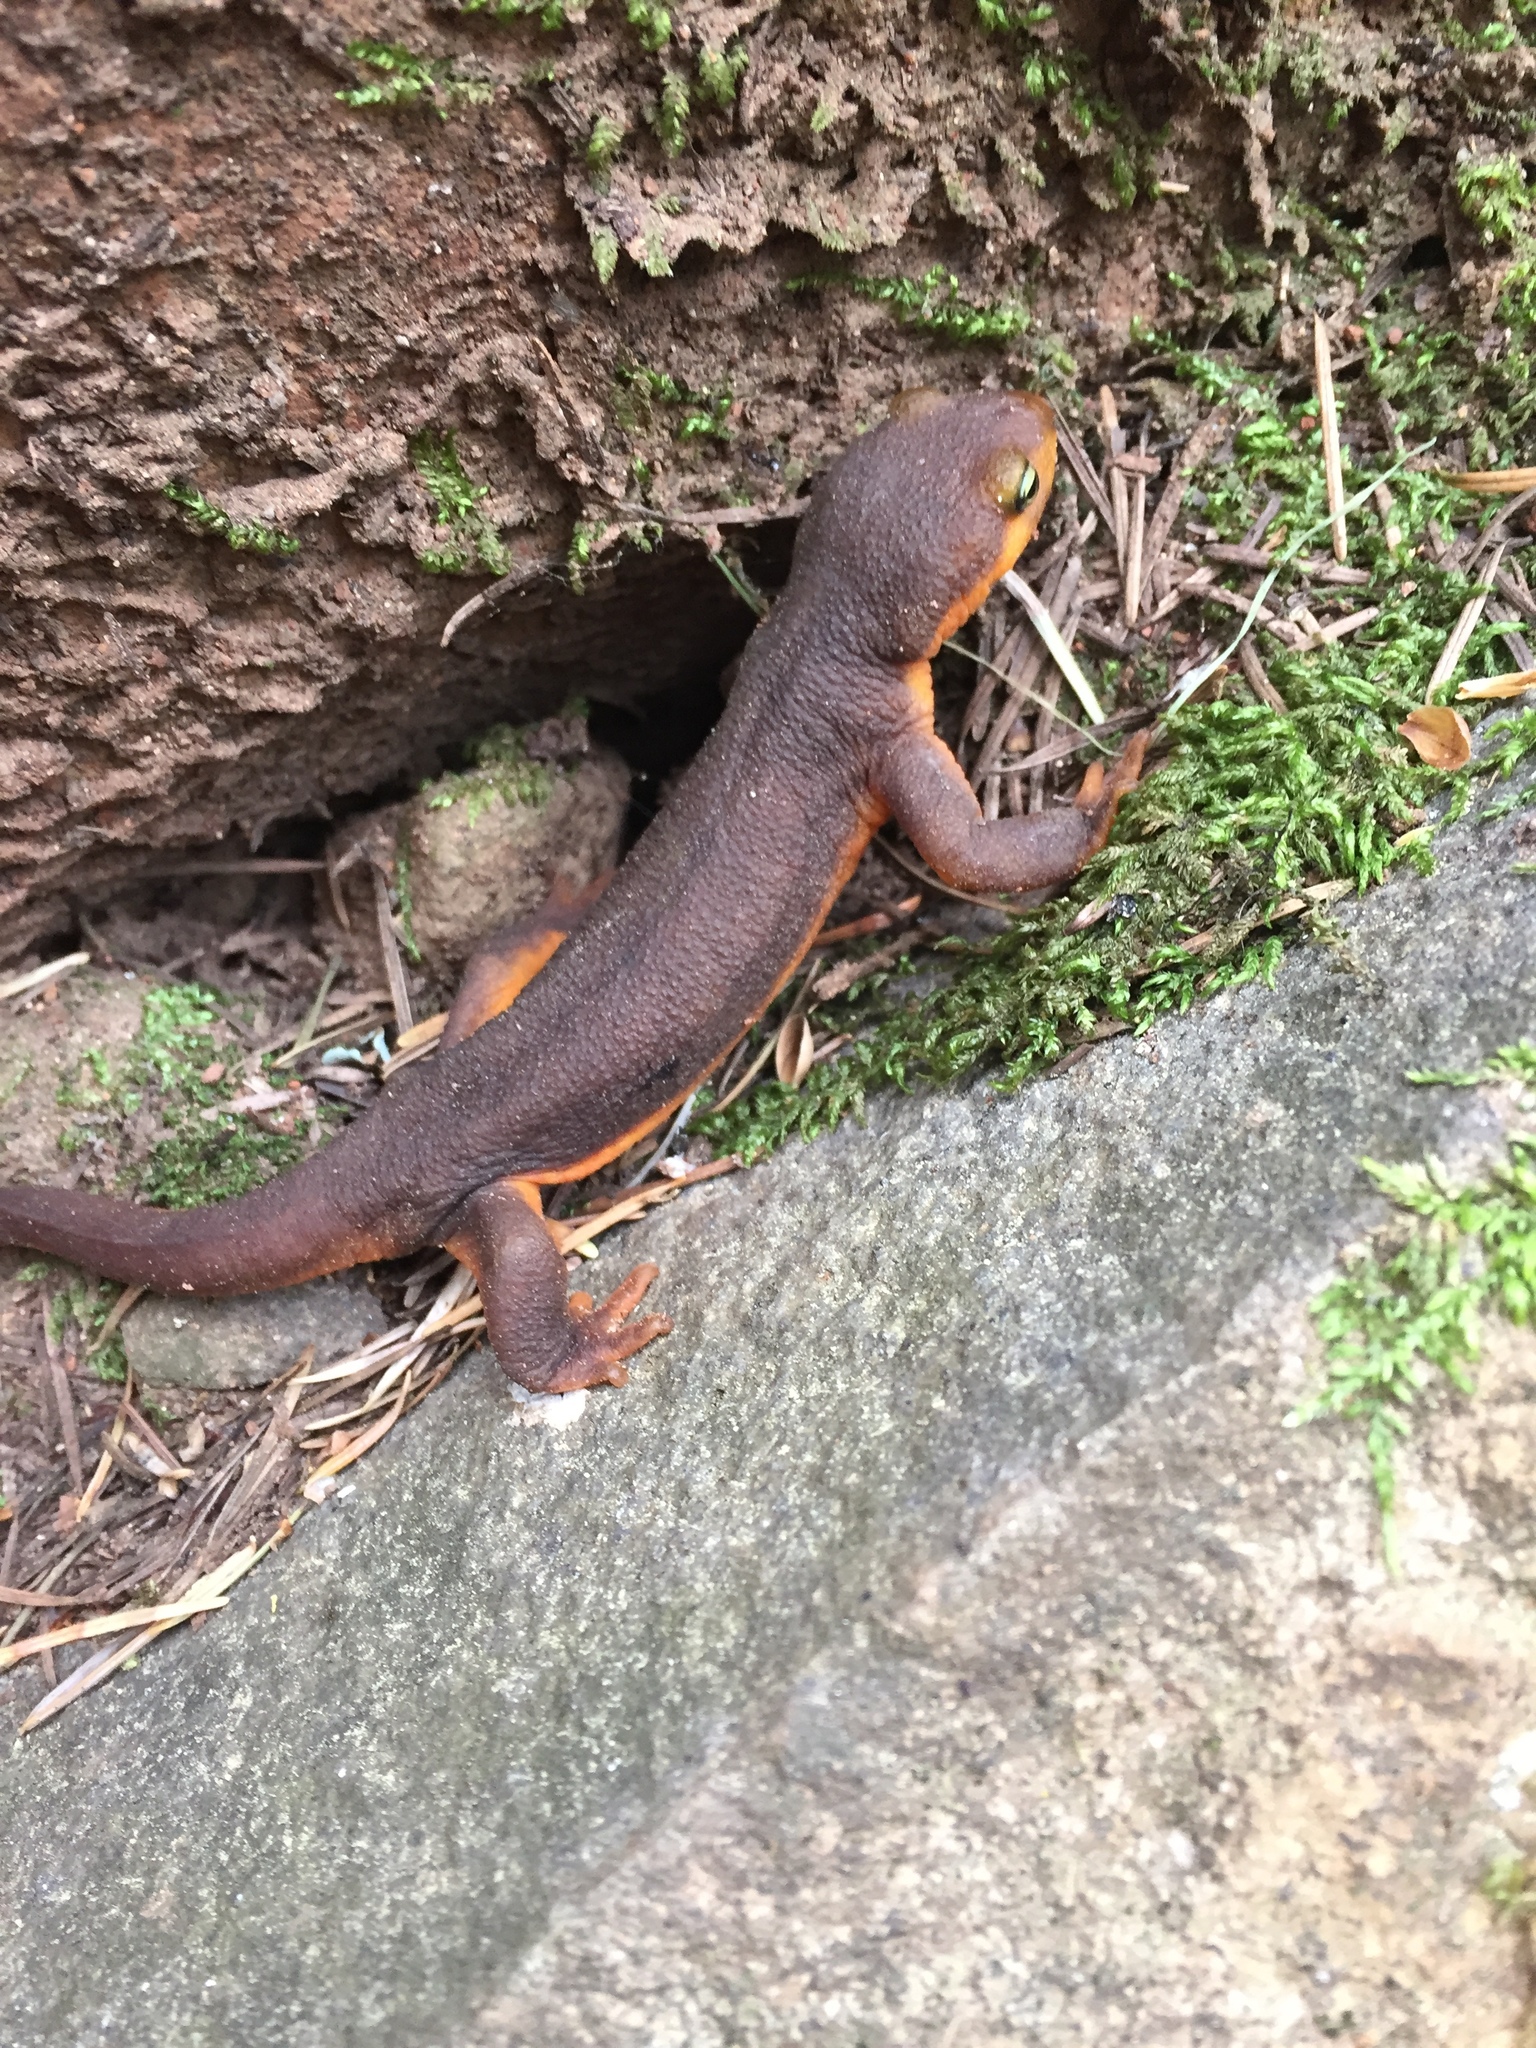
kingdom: Animalia
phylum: Chordata
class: Amphibia
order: Caudata
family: Salamandridae
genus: Taricha
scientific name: Taricha torosa
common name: California newt
